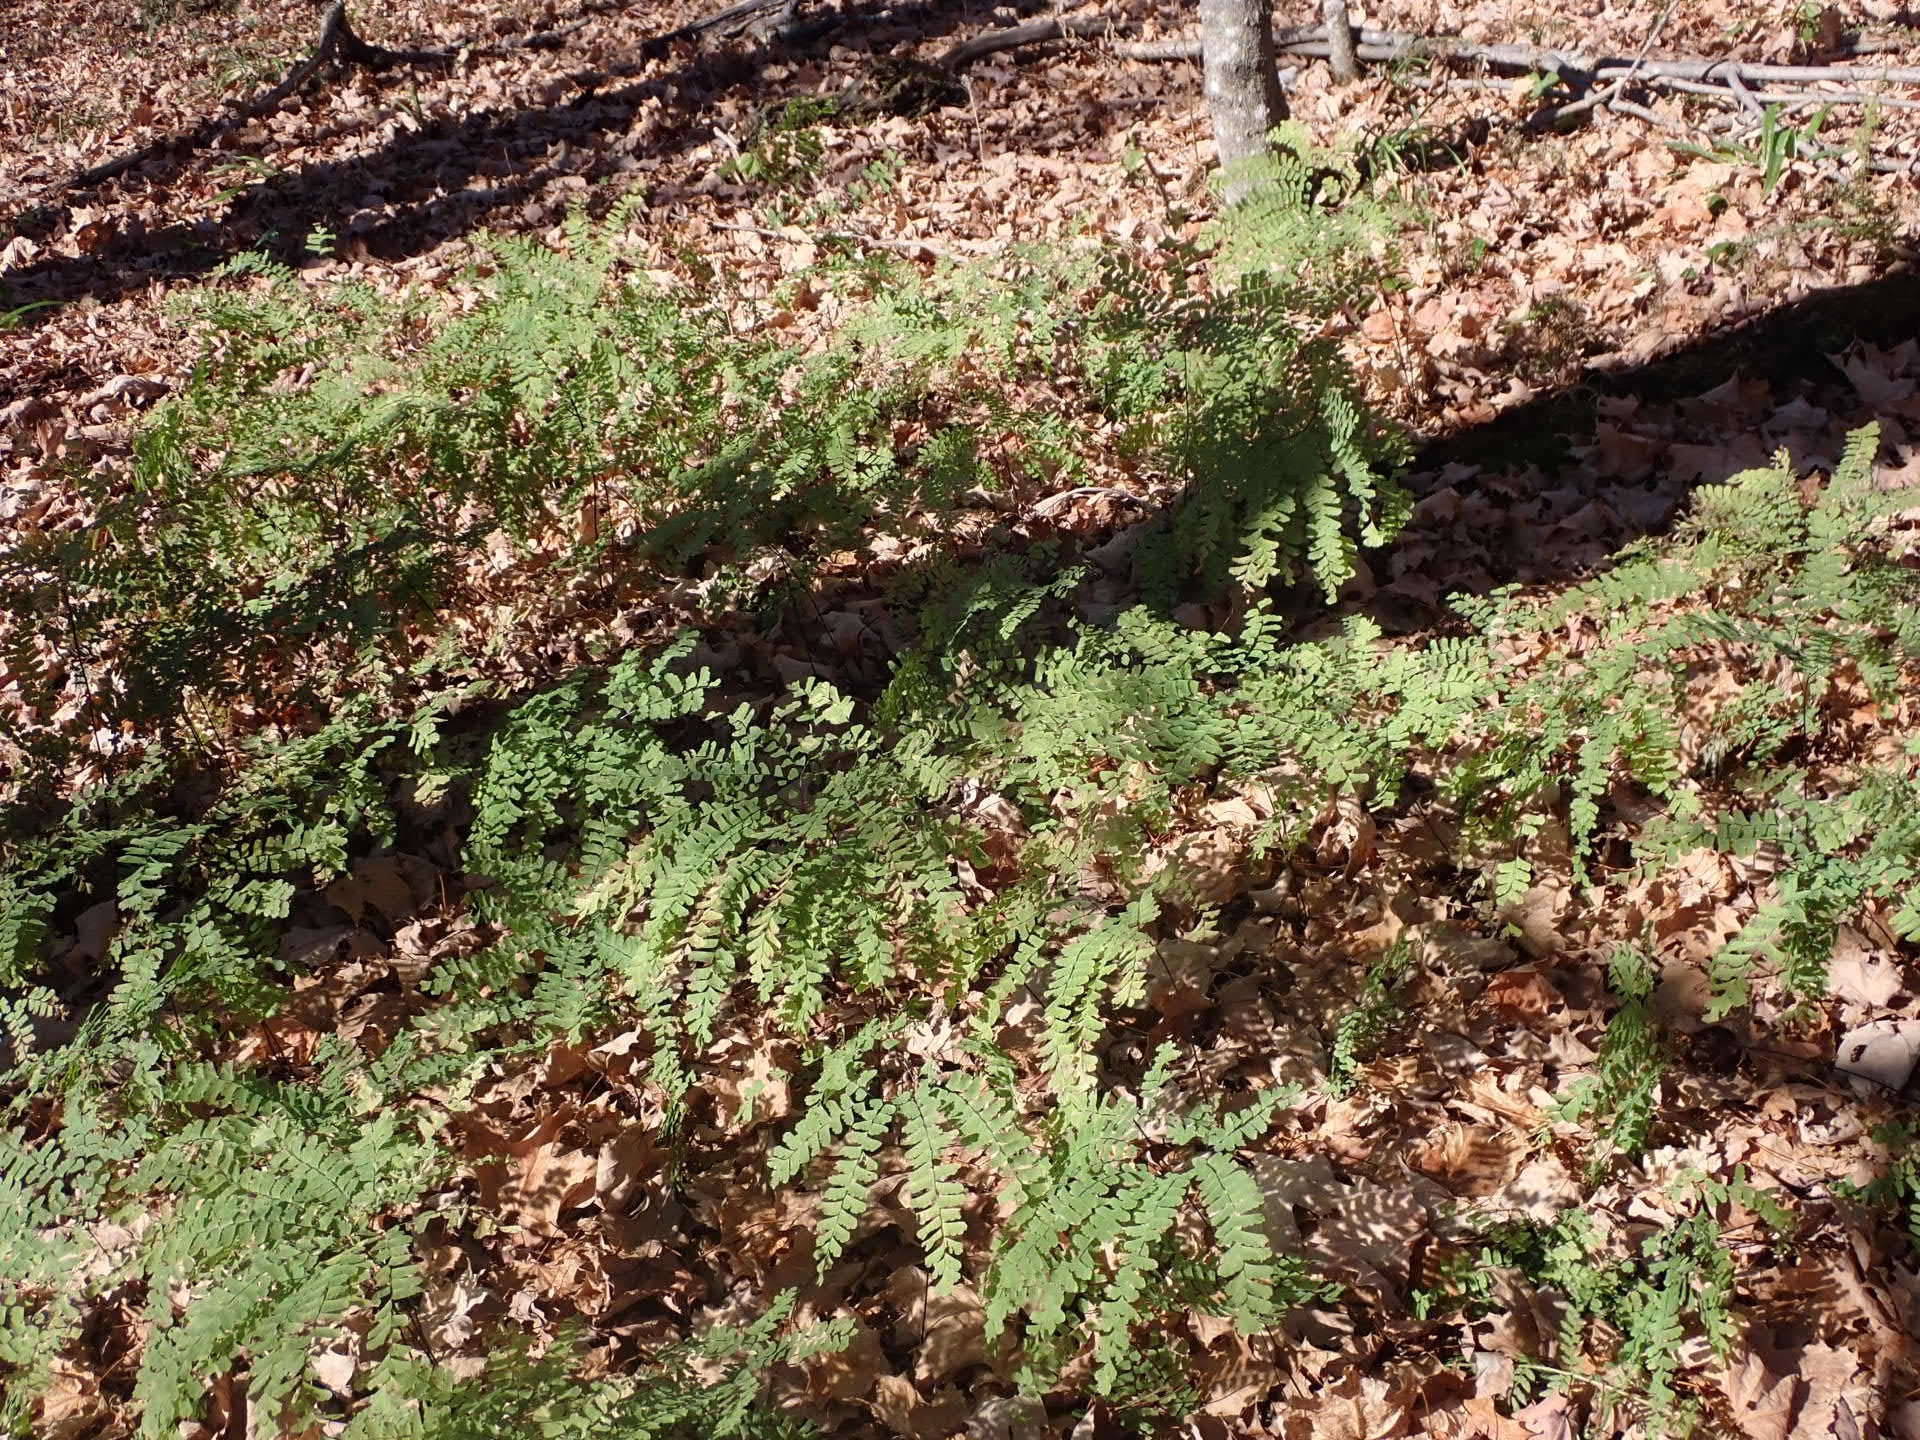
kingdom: Plantae
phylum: Tracheophyta
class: Polypodiopsida
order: Polypodiales
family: Pteridaceae
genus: Adiantum
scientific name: Adiantum pedatum
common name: Five-finger fern
